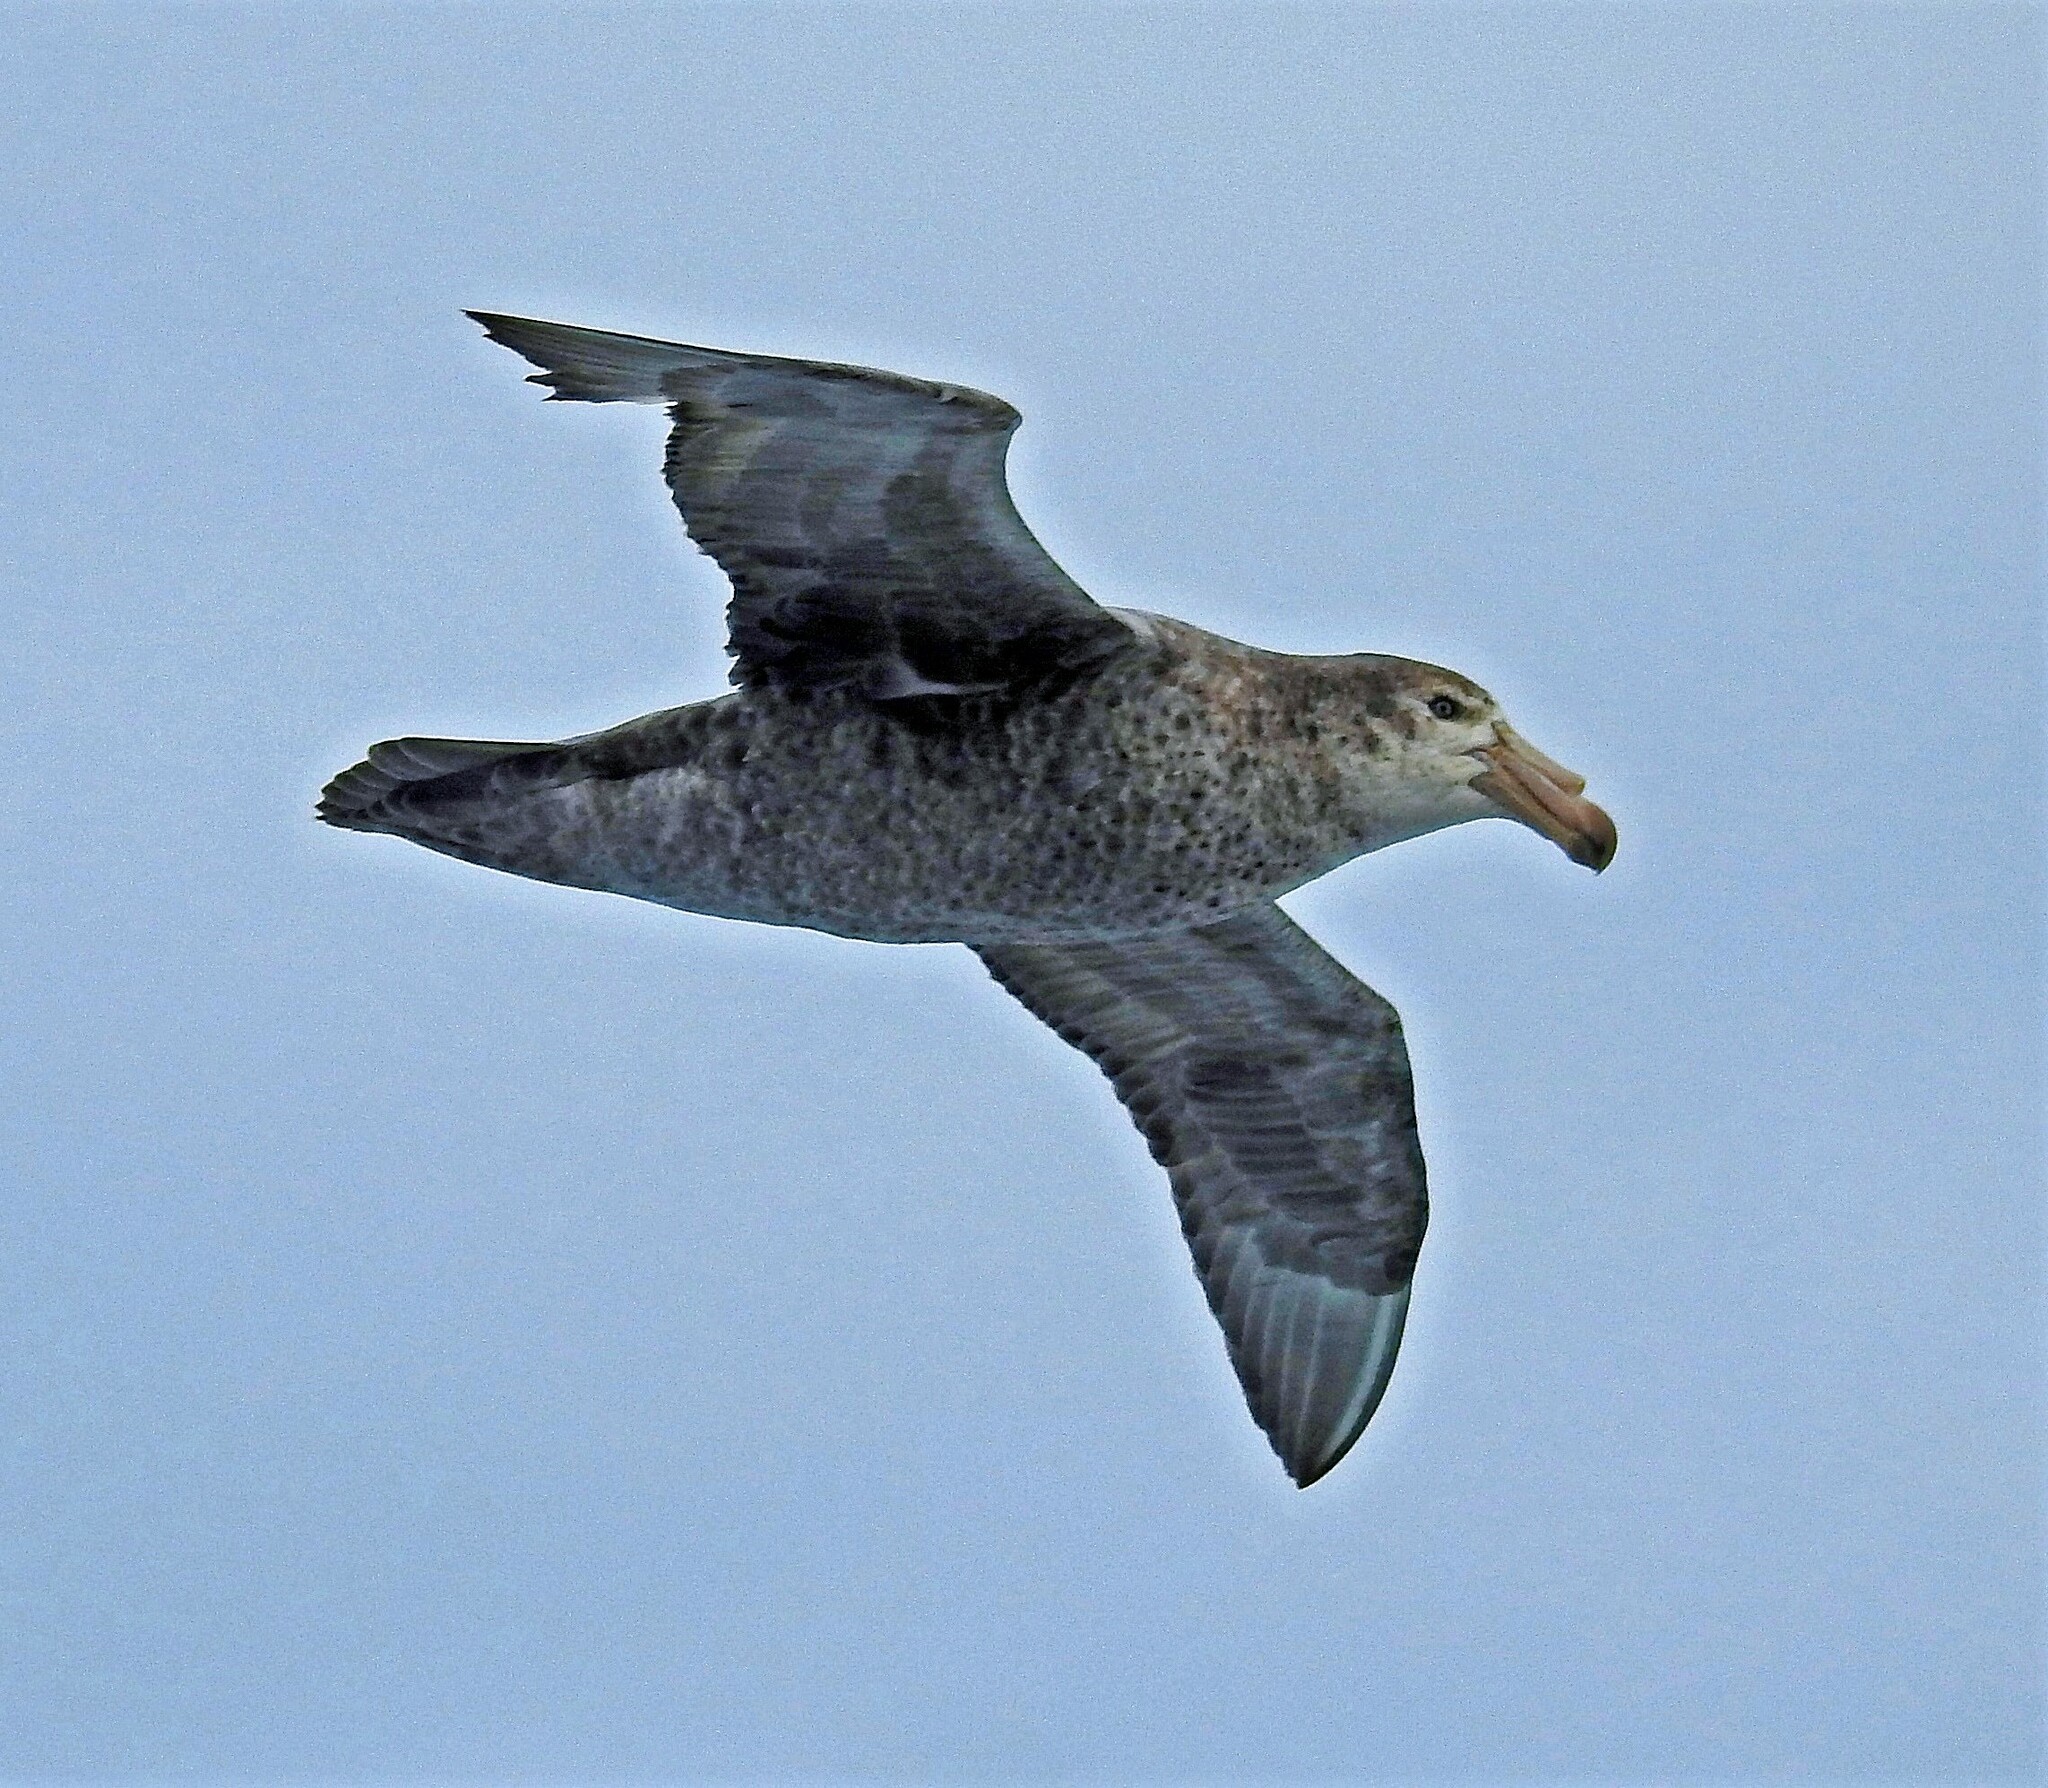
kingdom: Animalia
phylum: Chordata
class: Aves
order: Procellariiformes
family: Procellariidae
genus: Macronectes
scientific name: Macronectes halli
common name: Northern giant petrel
